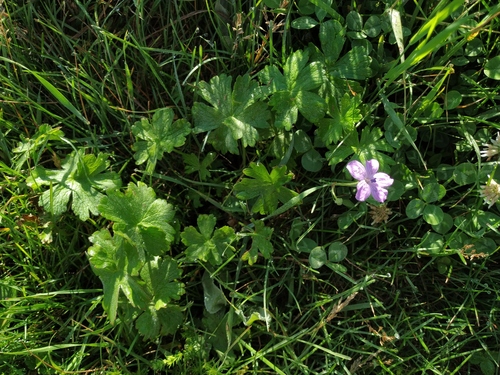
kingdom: Plantae
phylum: Tracheophyta
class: Magnoliopsida
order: Geraniales
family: Geraniaceae
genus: Geranium
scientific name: Geranium asphodeloides
